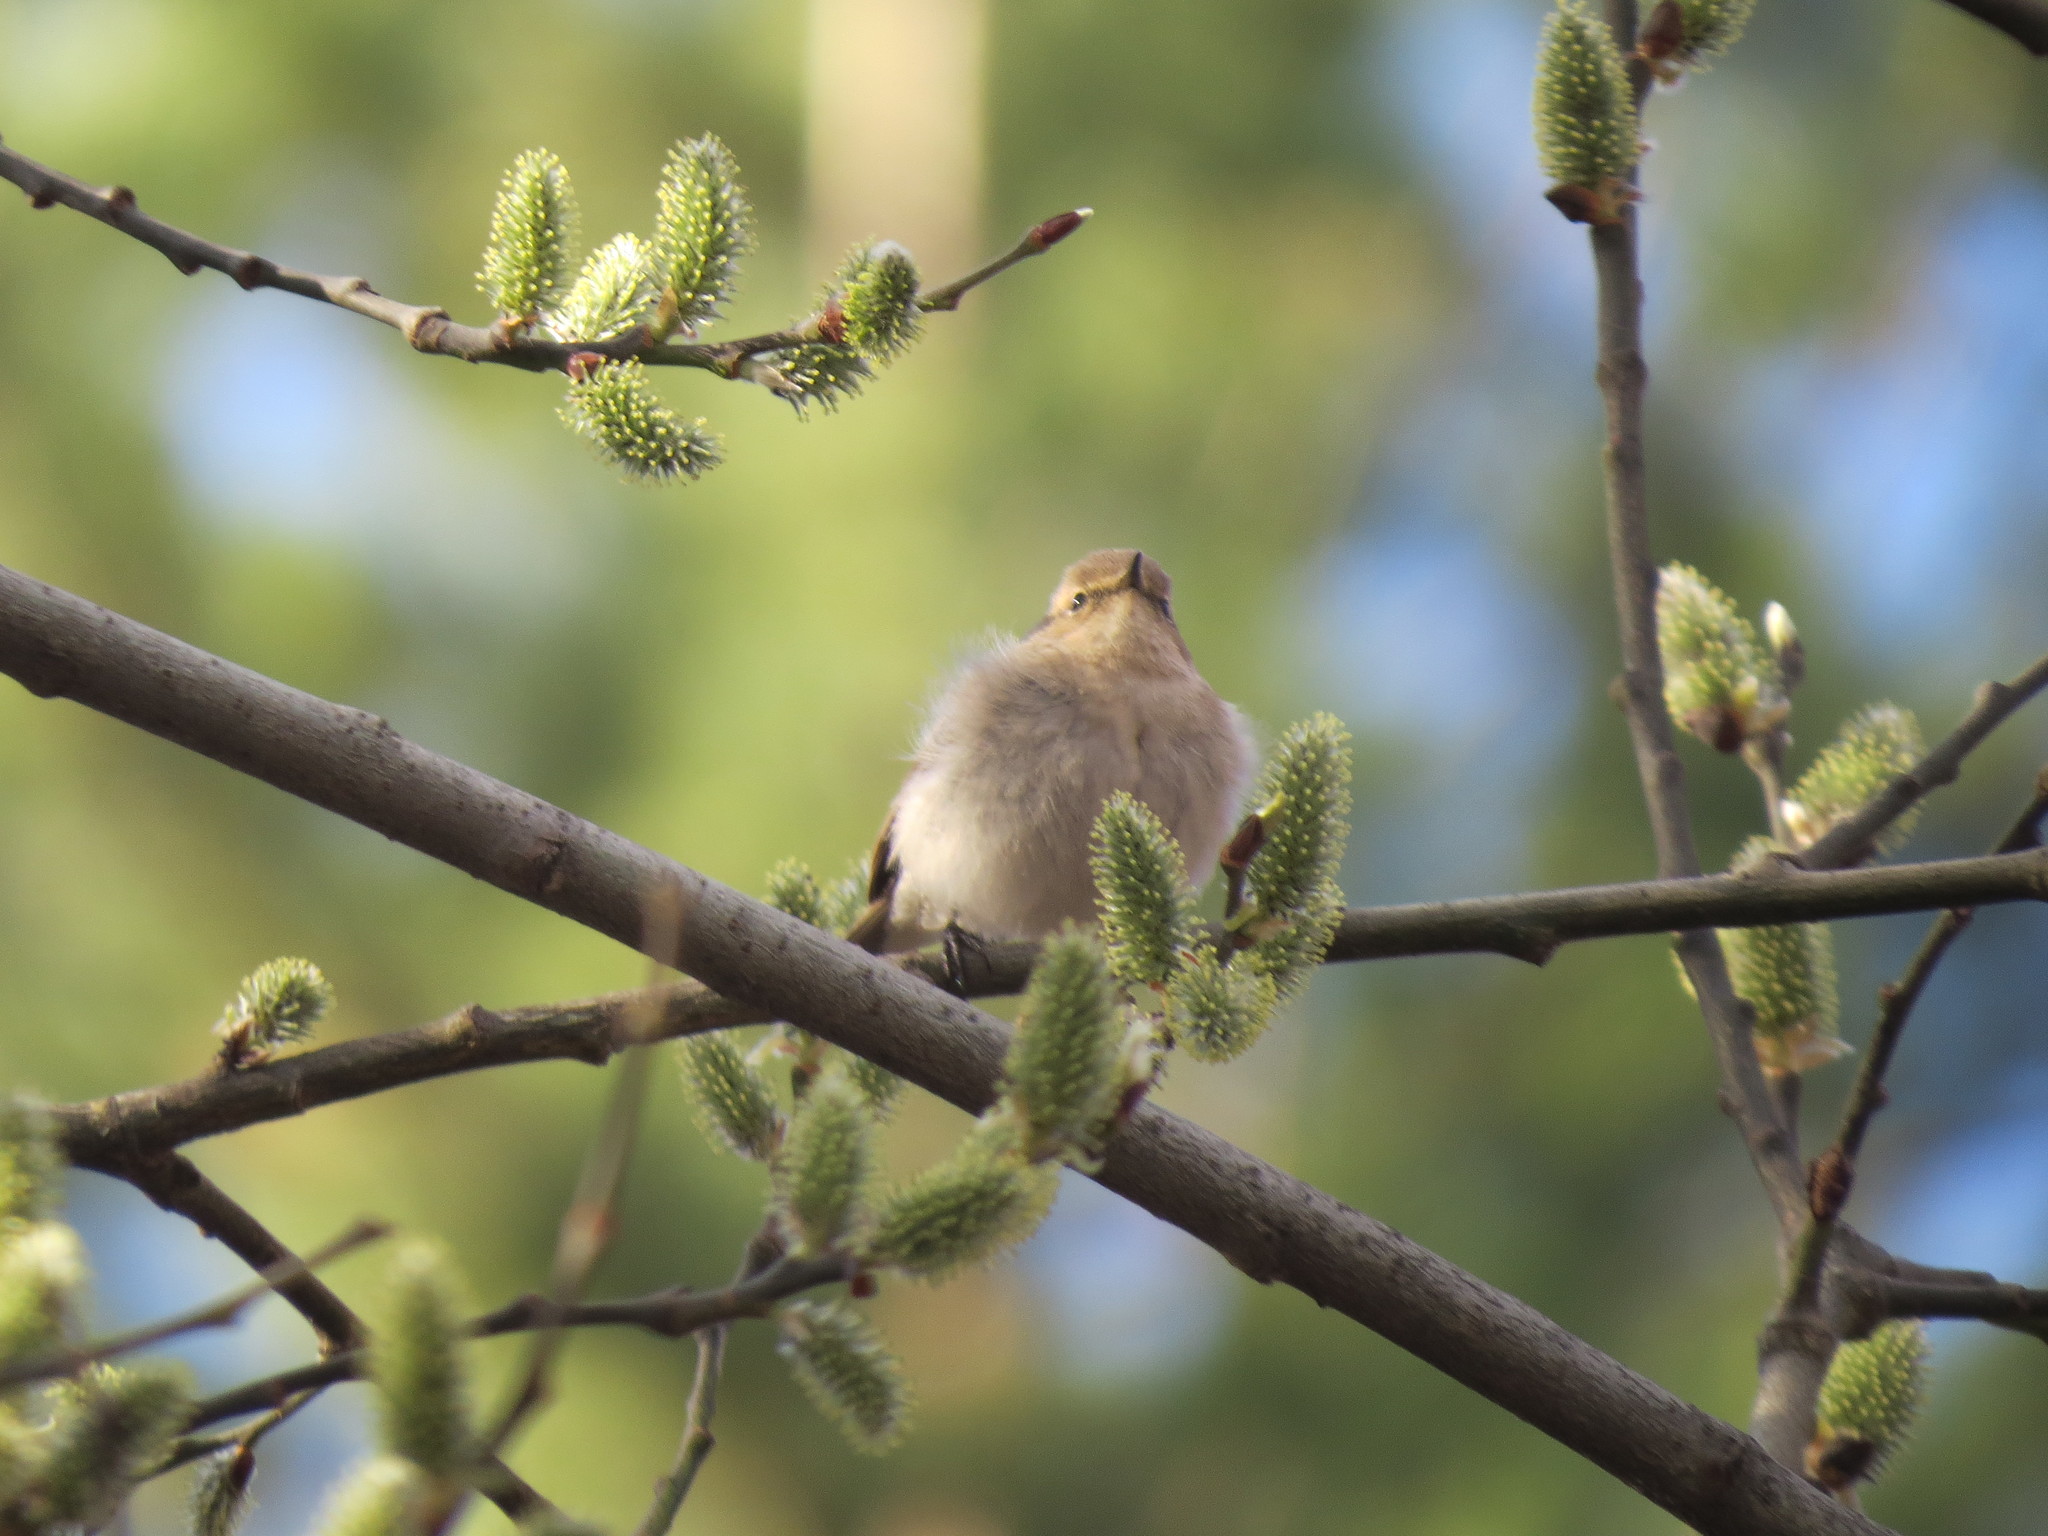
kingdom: Animalia
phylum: Chordata
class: Aves
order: Passeriformes
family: Phylloscopidae
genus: Phylloscopus
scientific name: Phylloscopus collybita
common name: Common chiffchaff
